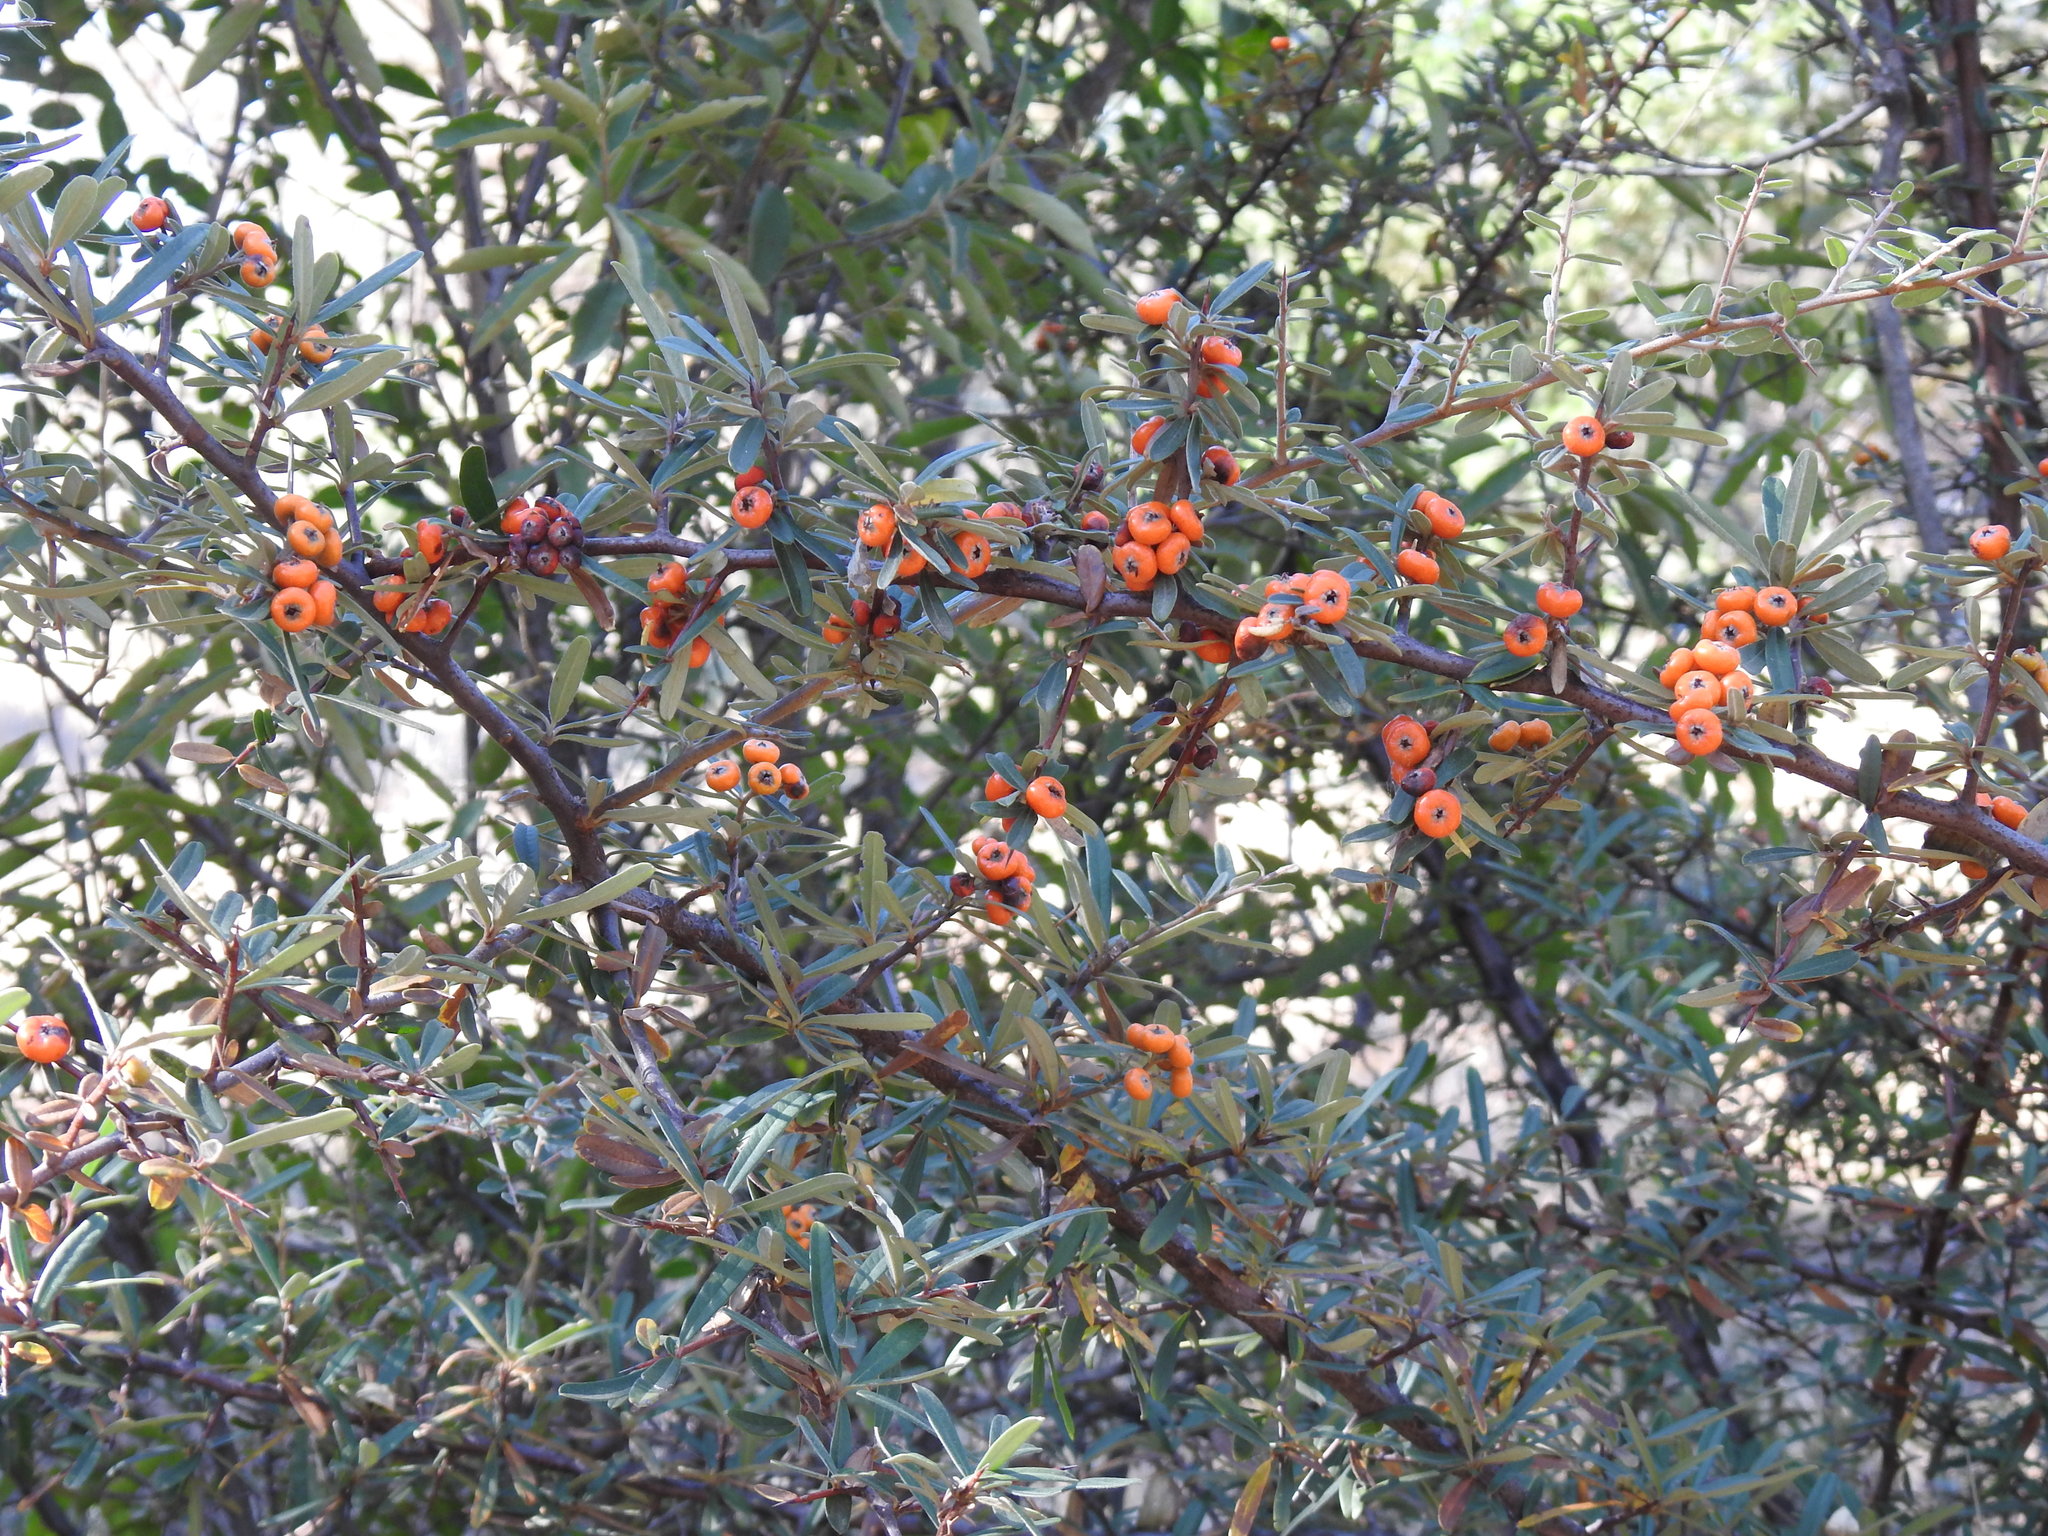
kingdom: Plantae
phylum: Tracheophyta
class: Magnoliopsida
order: Rosales
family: Rosaceae
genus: Pyracantha
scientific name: Pyracantha angustifolia
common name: Narrowleaf firethorn
